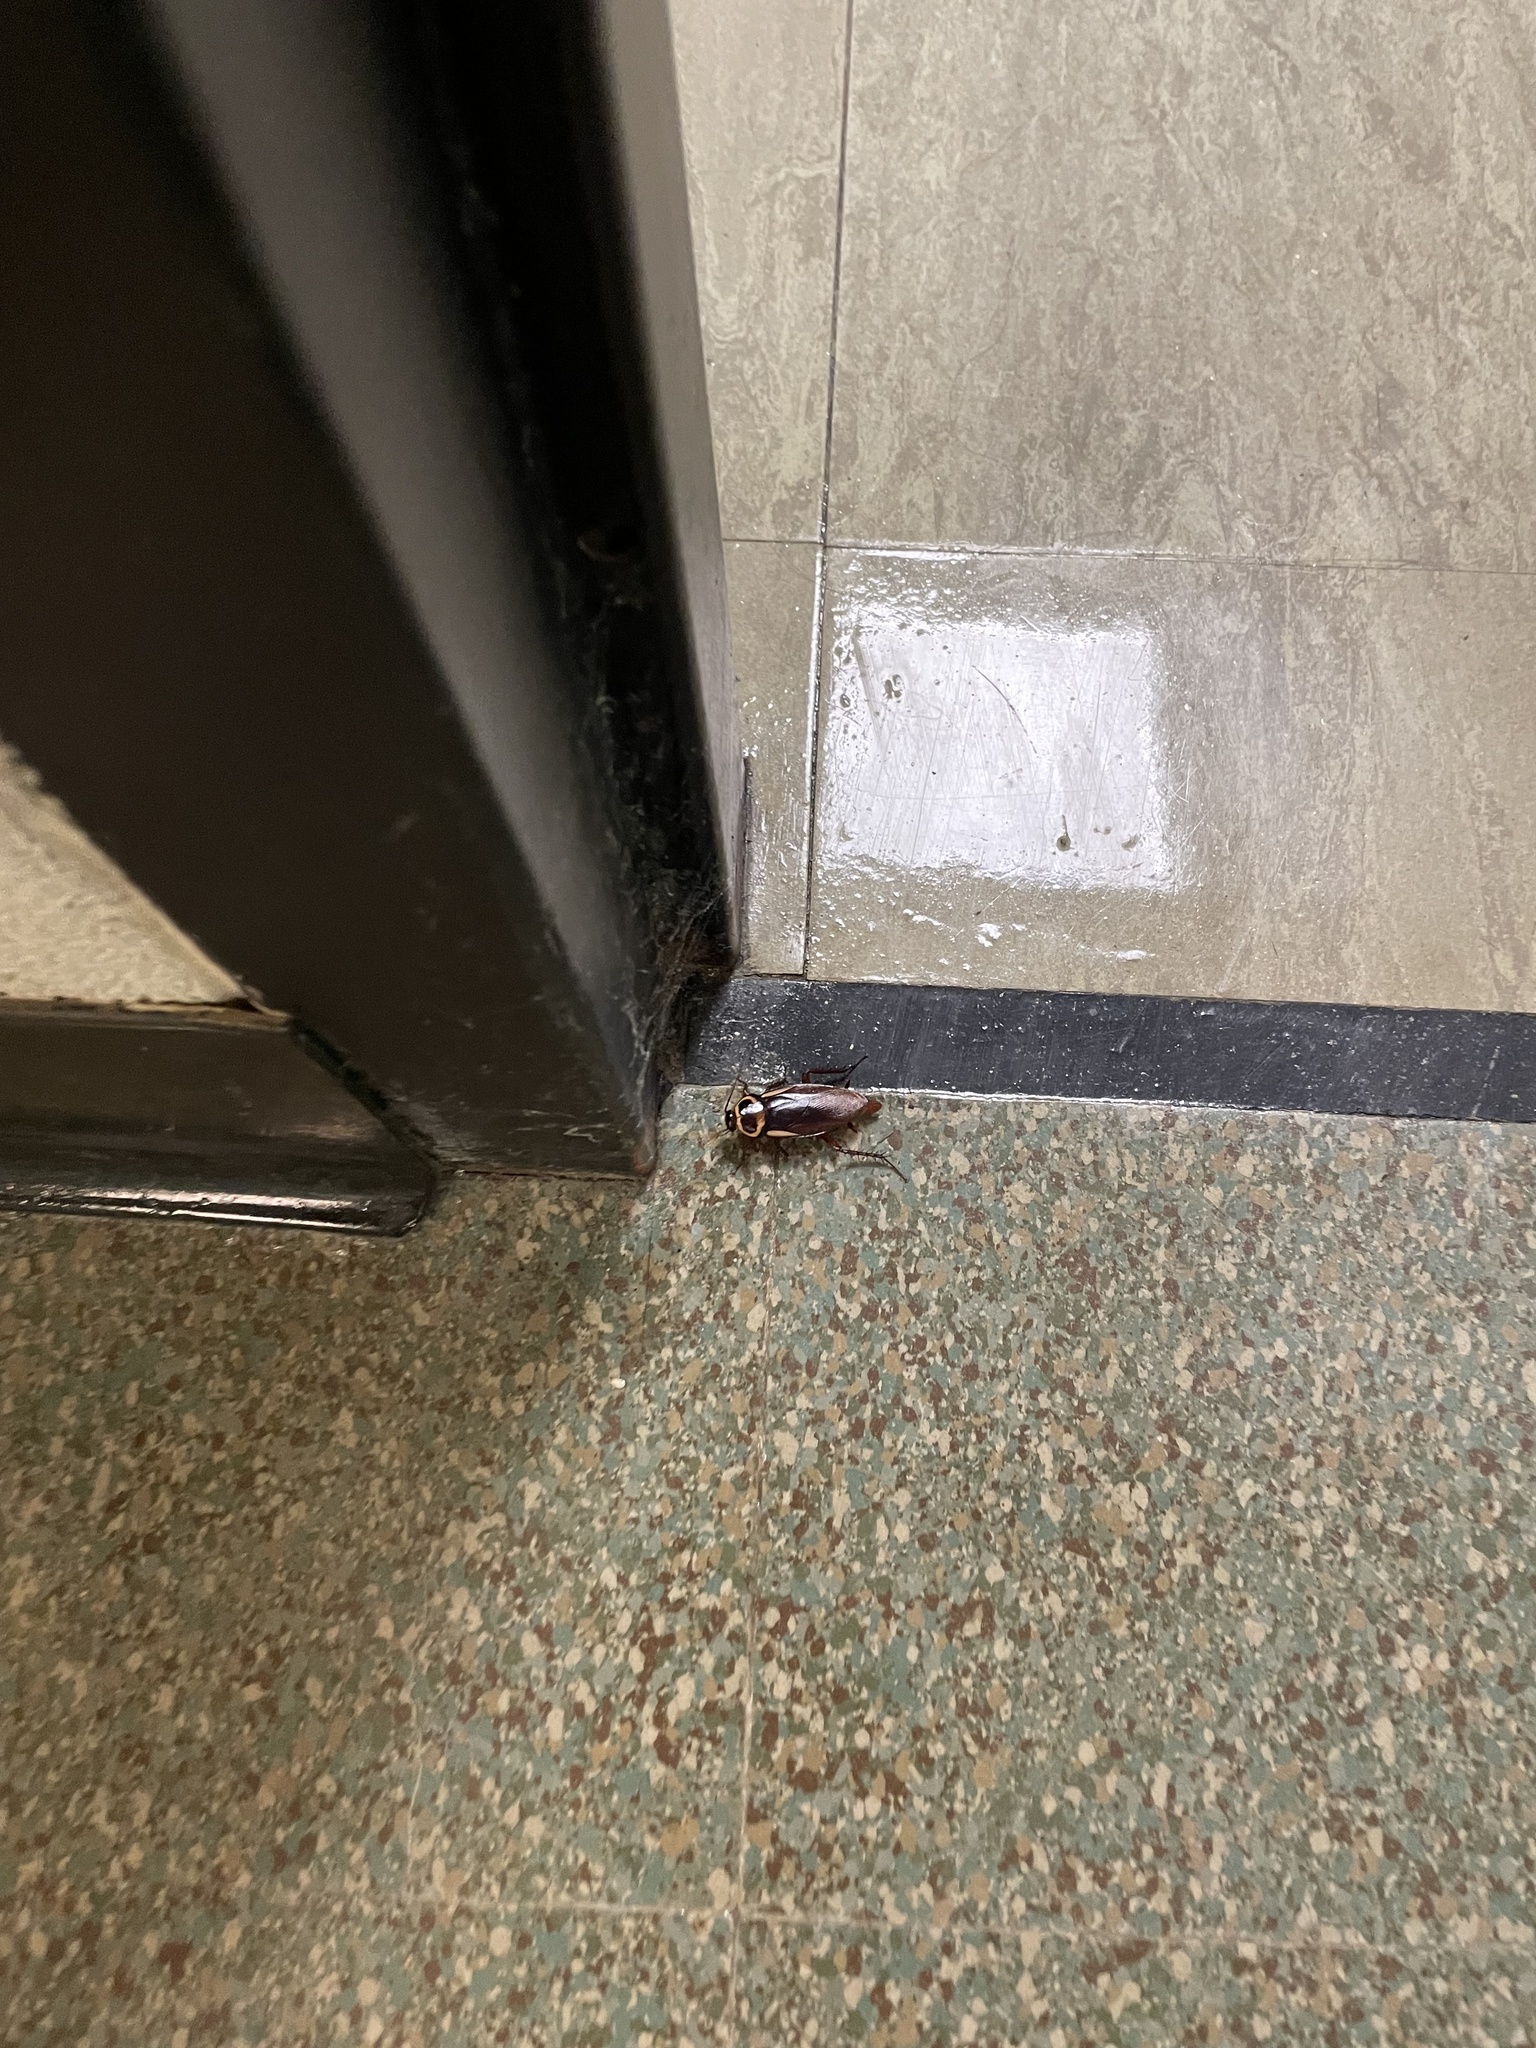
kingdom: Animalia
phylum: Arthropoda
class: Insecta
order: Blattodea
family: Blattidae
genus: Periplaneta
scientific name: Periplaneta australasiae
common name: Australian cockroach
